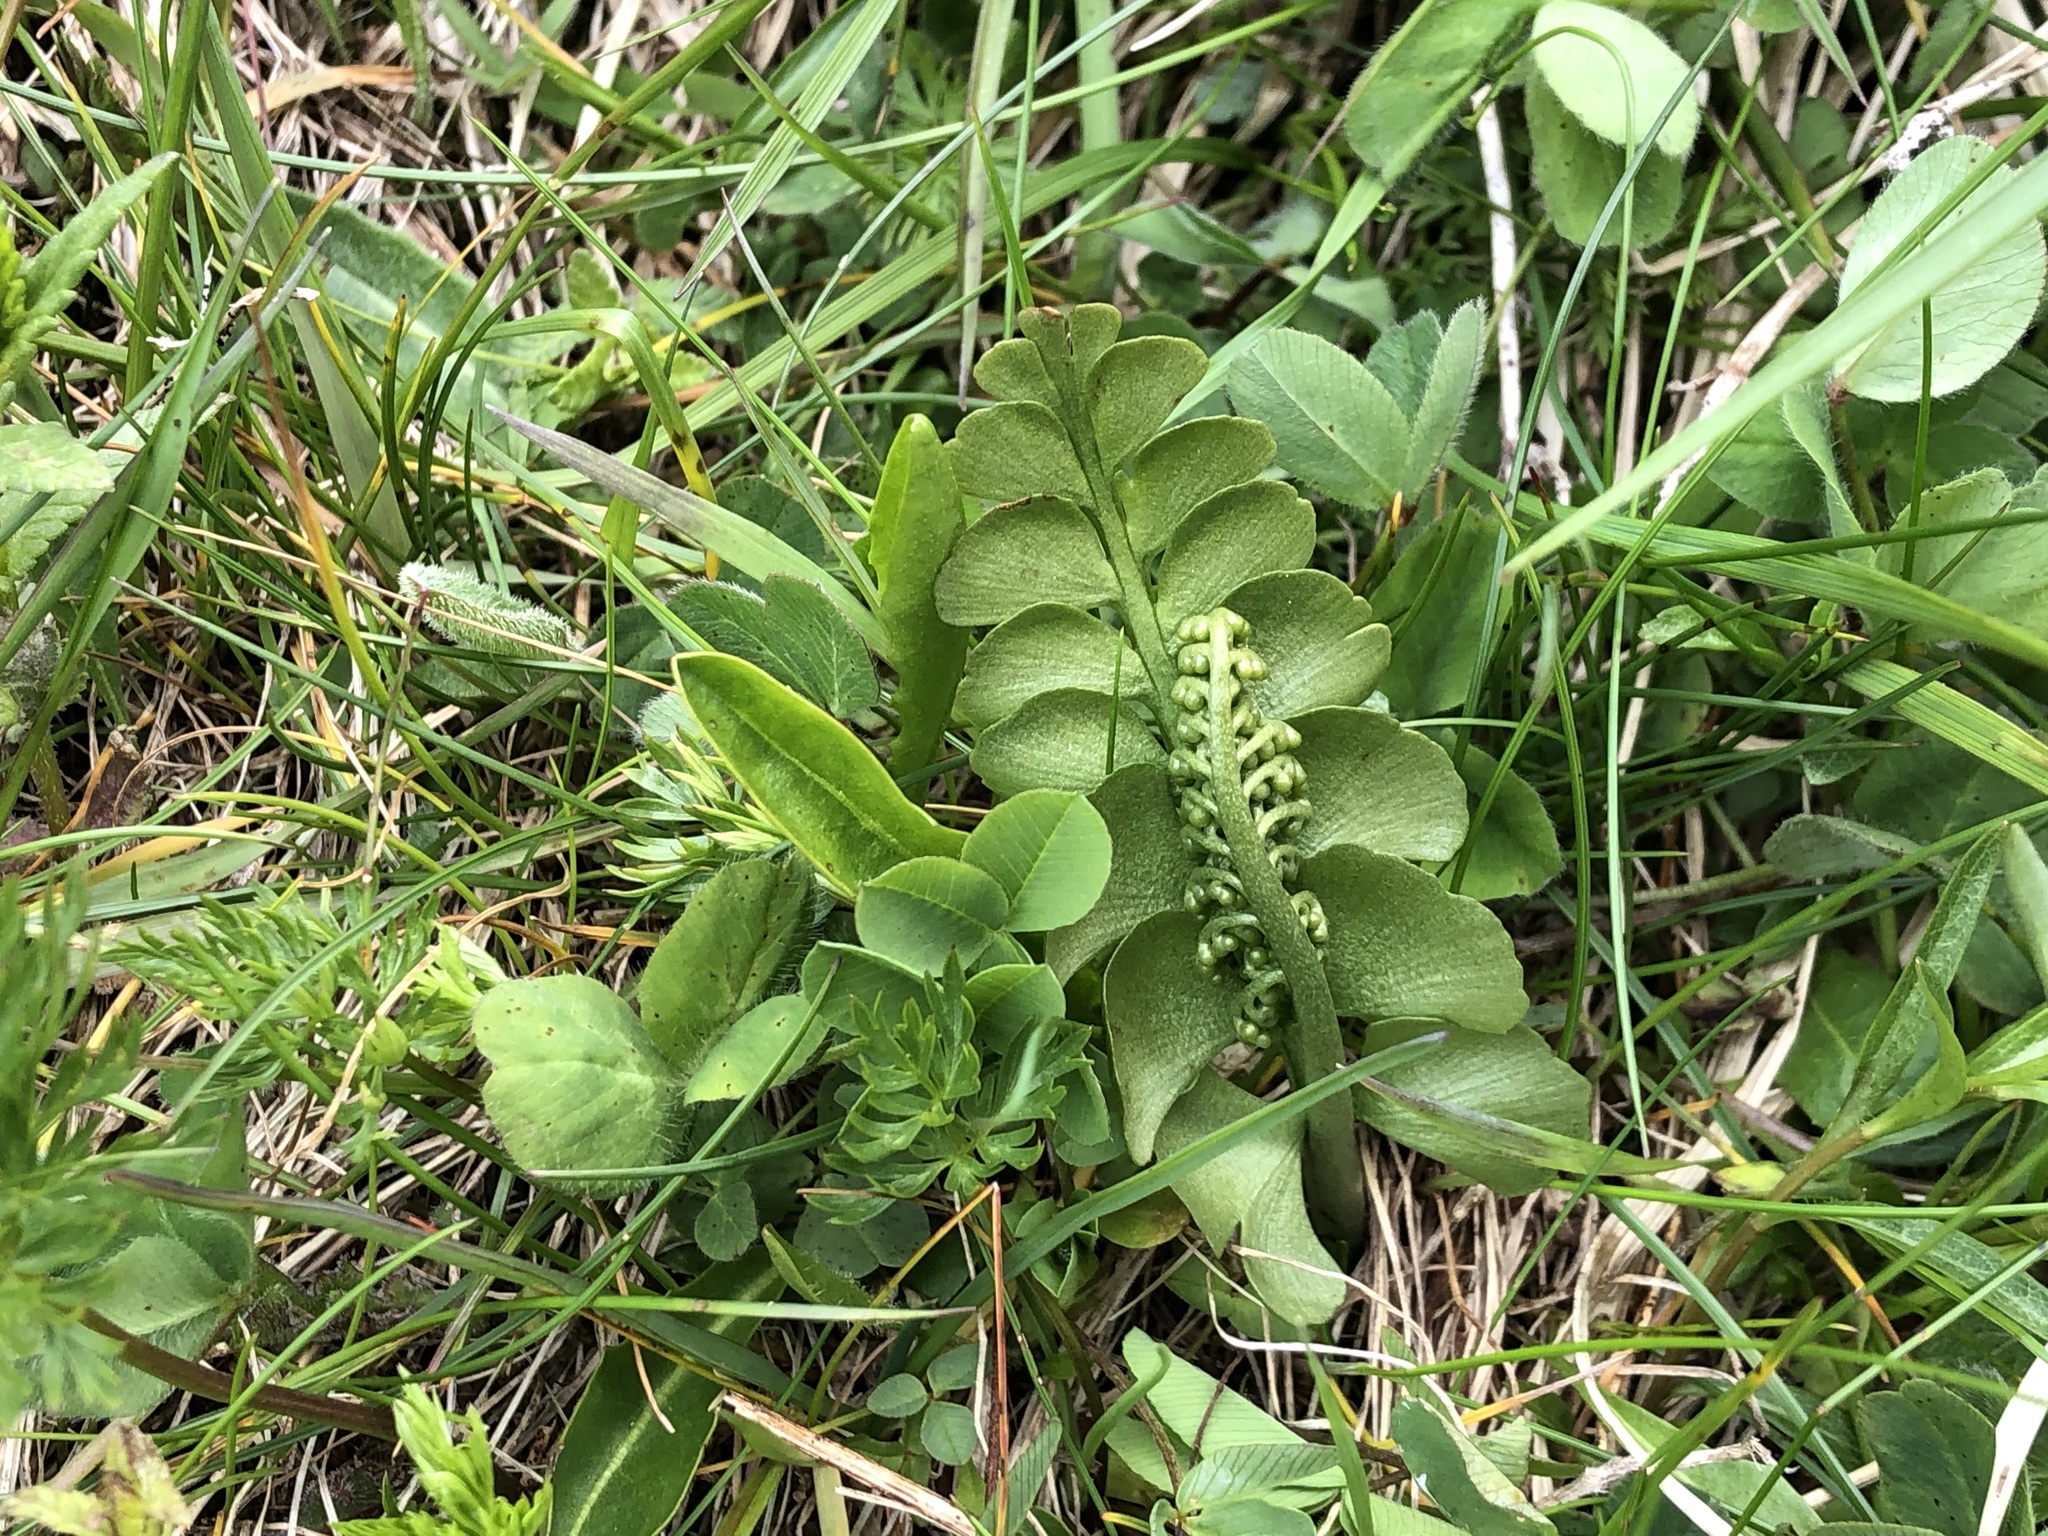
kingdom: Plantae
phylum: Tracheophyta
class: Polypodiopsida
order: Ophioglossales
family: Ophioglossaceae
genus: Botrychium
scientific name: Botrychium lunaria
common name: Moonwort
